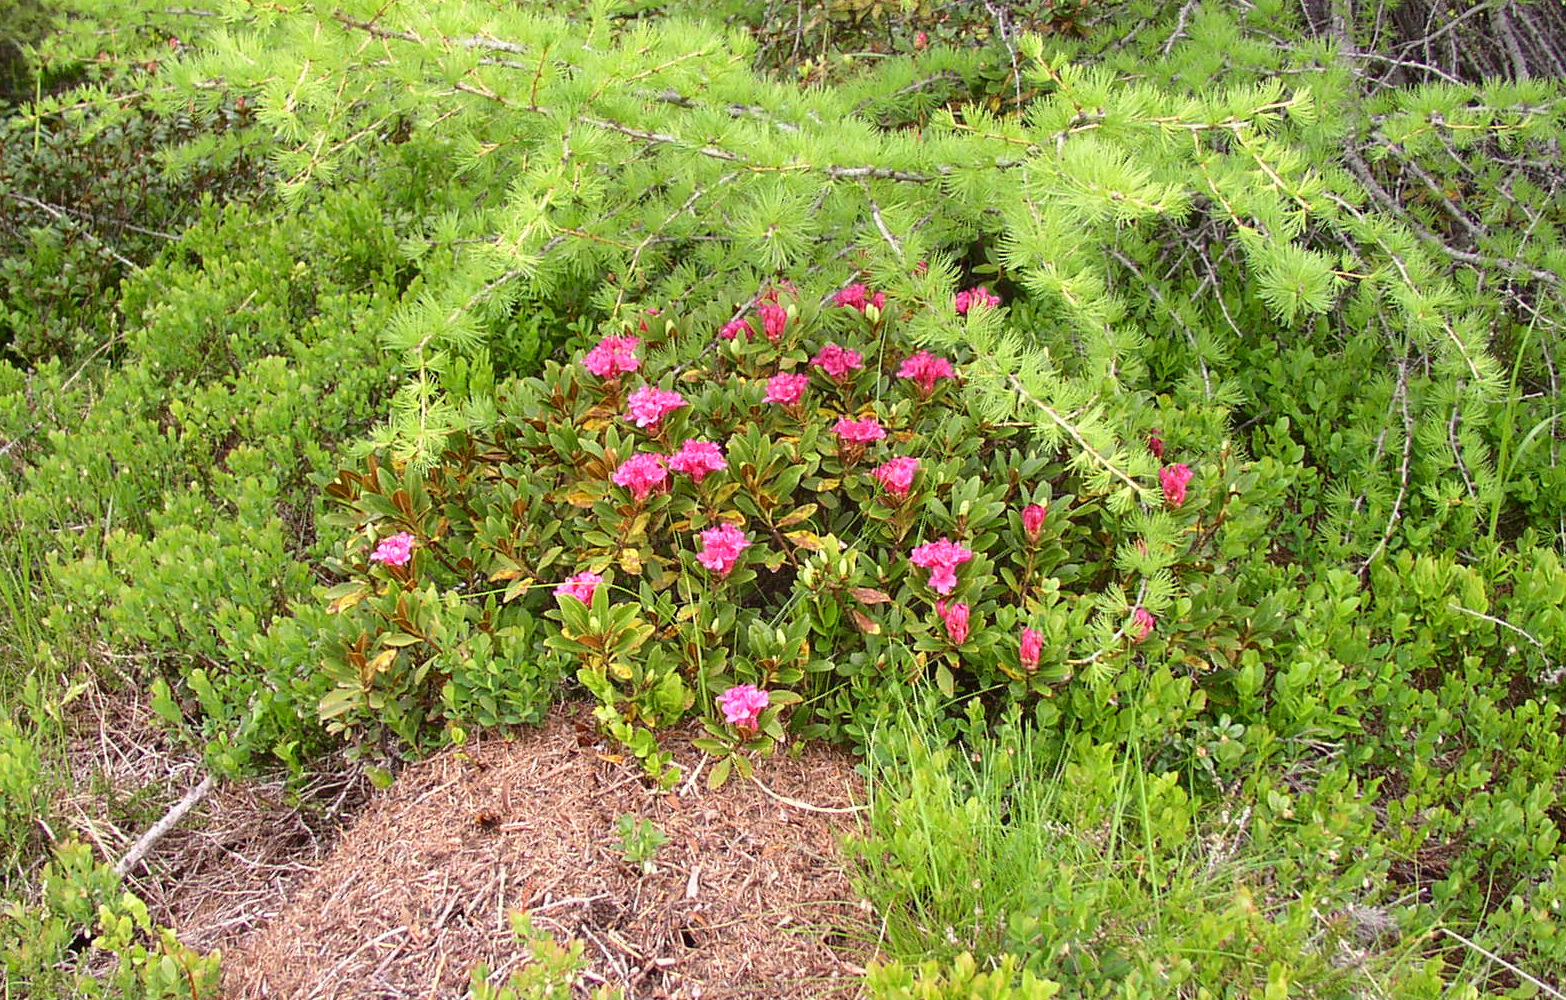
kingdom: Plantae
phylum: Tracheophyta
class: Magnoliopsida
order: Ericales
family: Ericaceae
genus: Rhododendron
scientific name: Rhododendron ferrugineum
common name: Alpenrose
